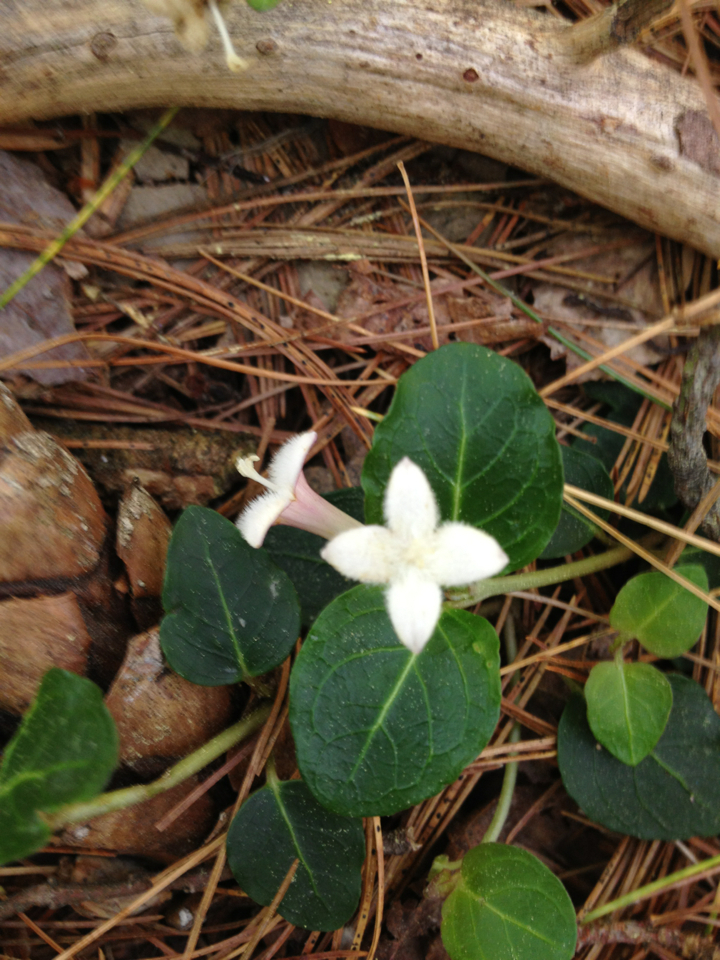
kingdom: Plantae
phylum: Tracheophyta
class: Magnoliopsida
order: Gentianales
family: Rubiaceae
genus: Mitchella
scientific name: Mitchella repens
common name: Partridge-berry
